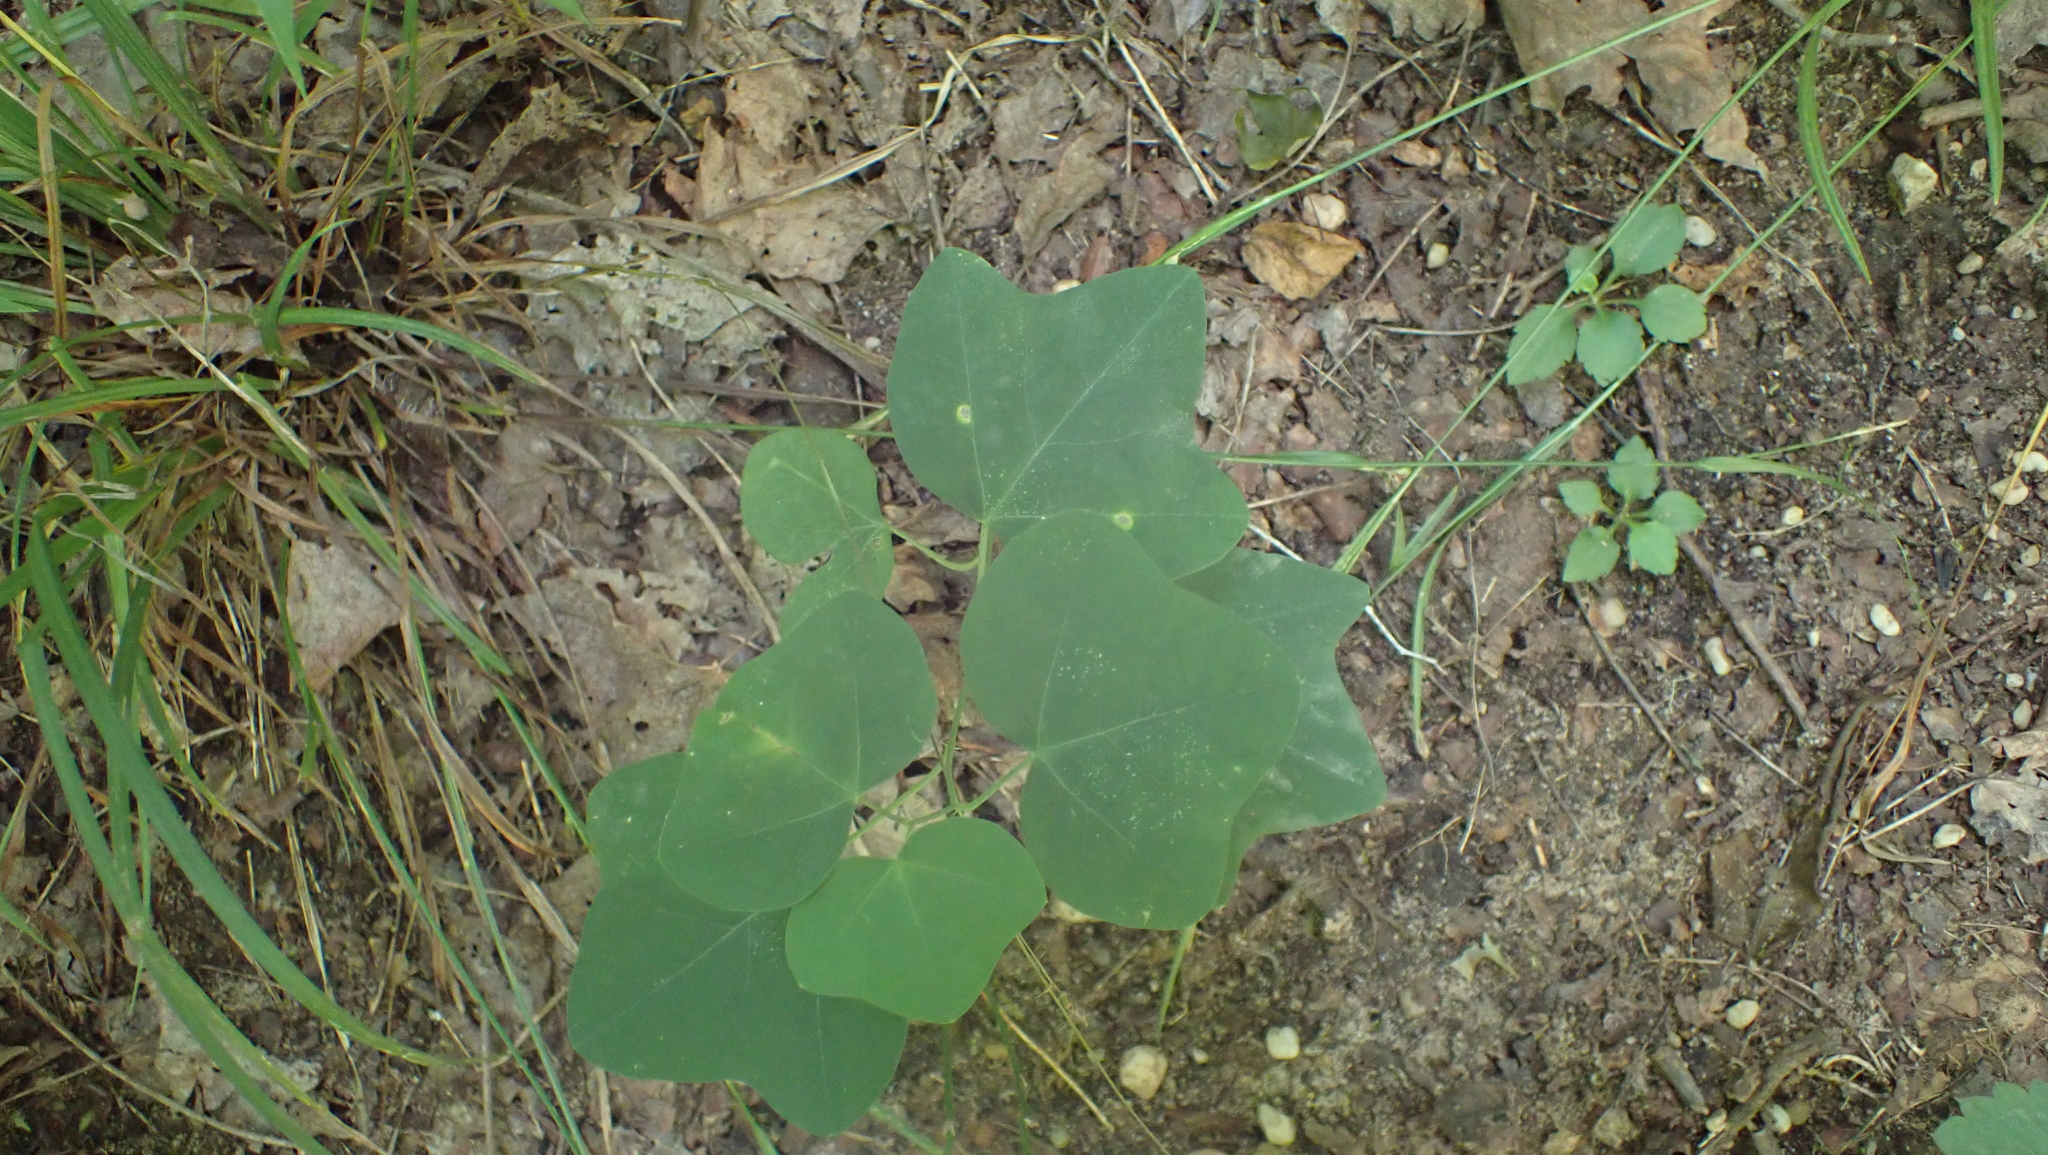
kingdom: Plantae
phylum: Tracheophyta
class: Magnoliopsida
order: Malpighiales
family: Passifloraceae
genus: Passiflora
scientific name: Passiflora lutea
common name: Yellow passionflower
